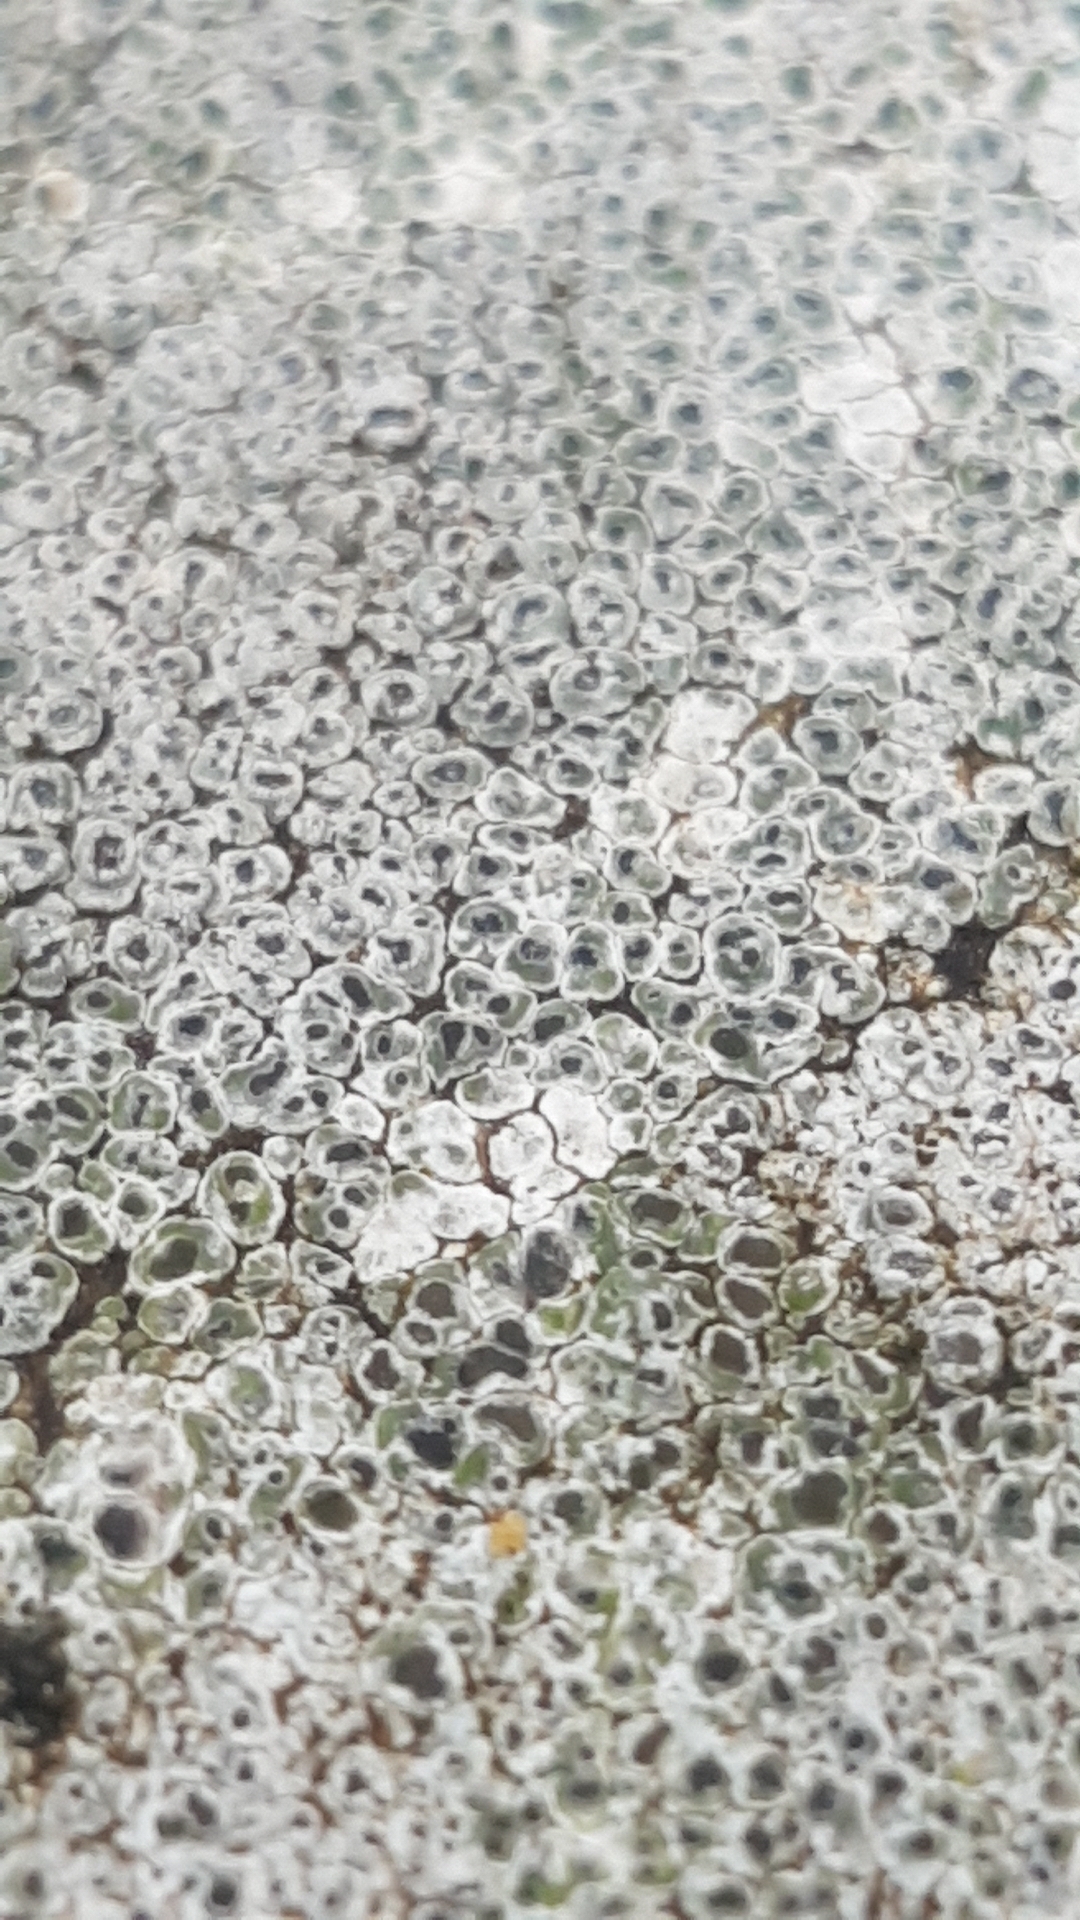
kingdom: Fungi
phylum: Ascomycota
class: Lecanoromycetes
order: Pertusariales
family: Megasporaceae
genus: Circinaria
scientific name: Circinaria contorta
